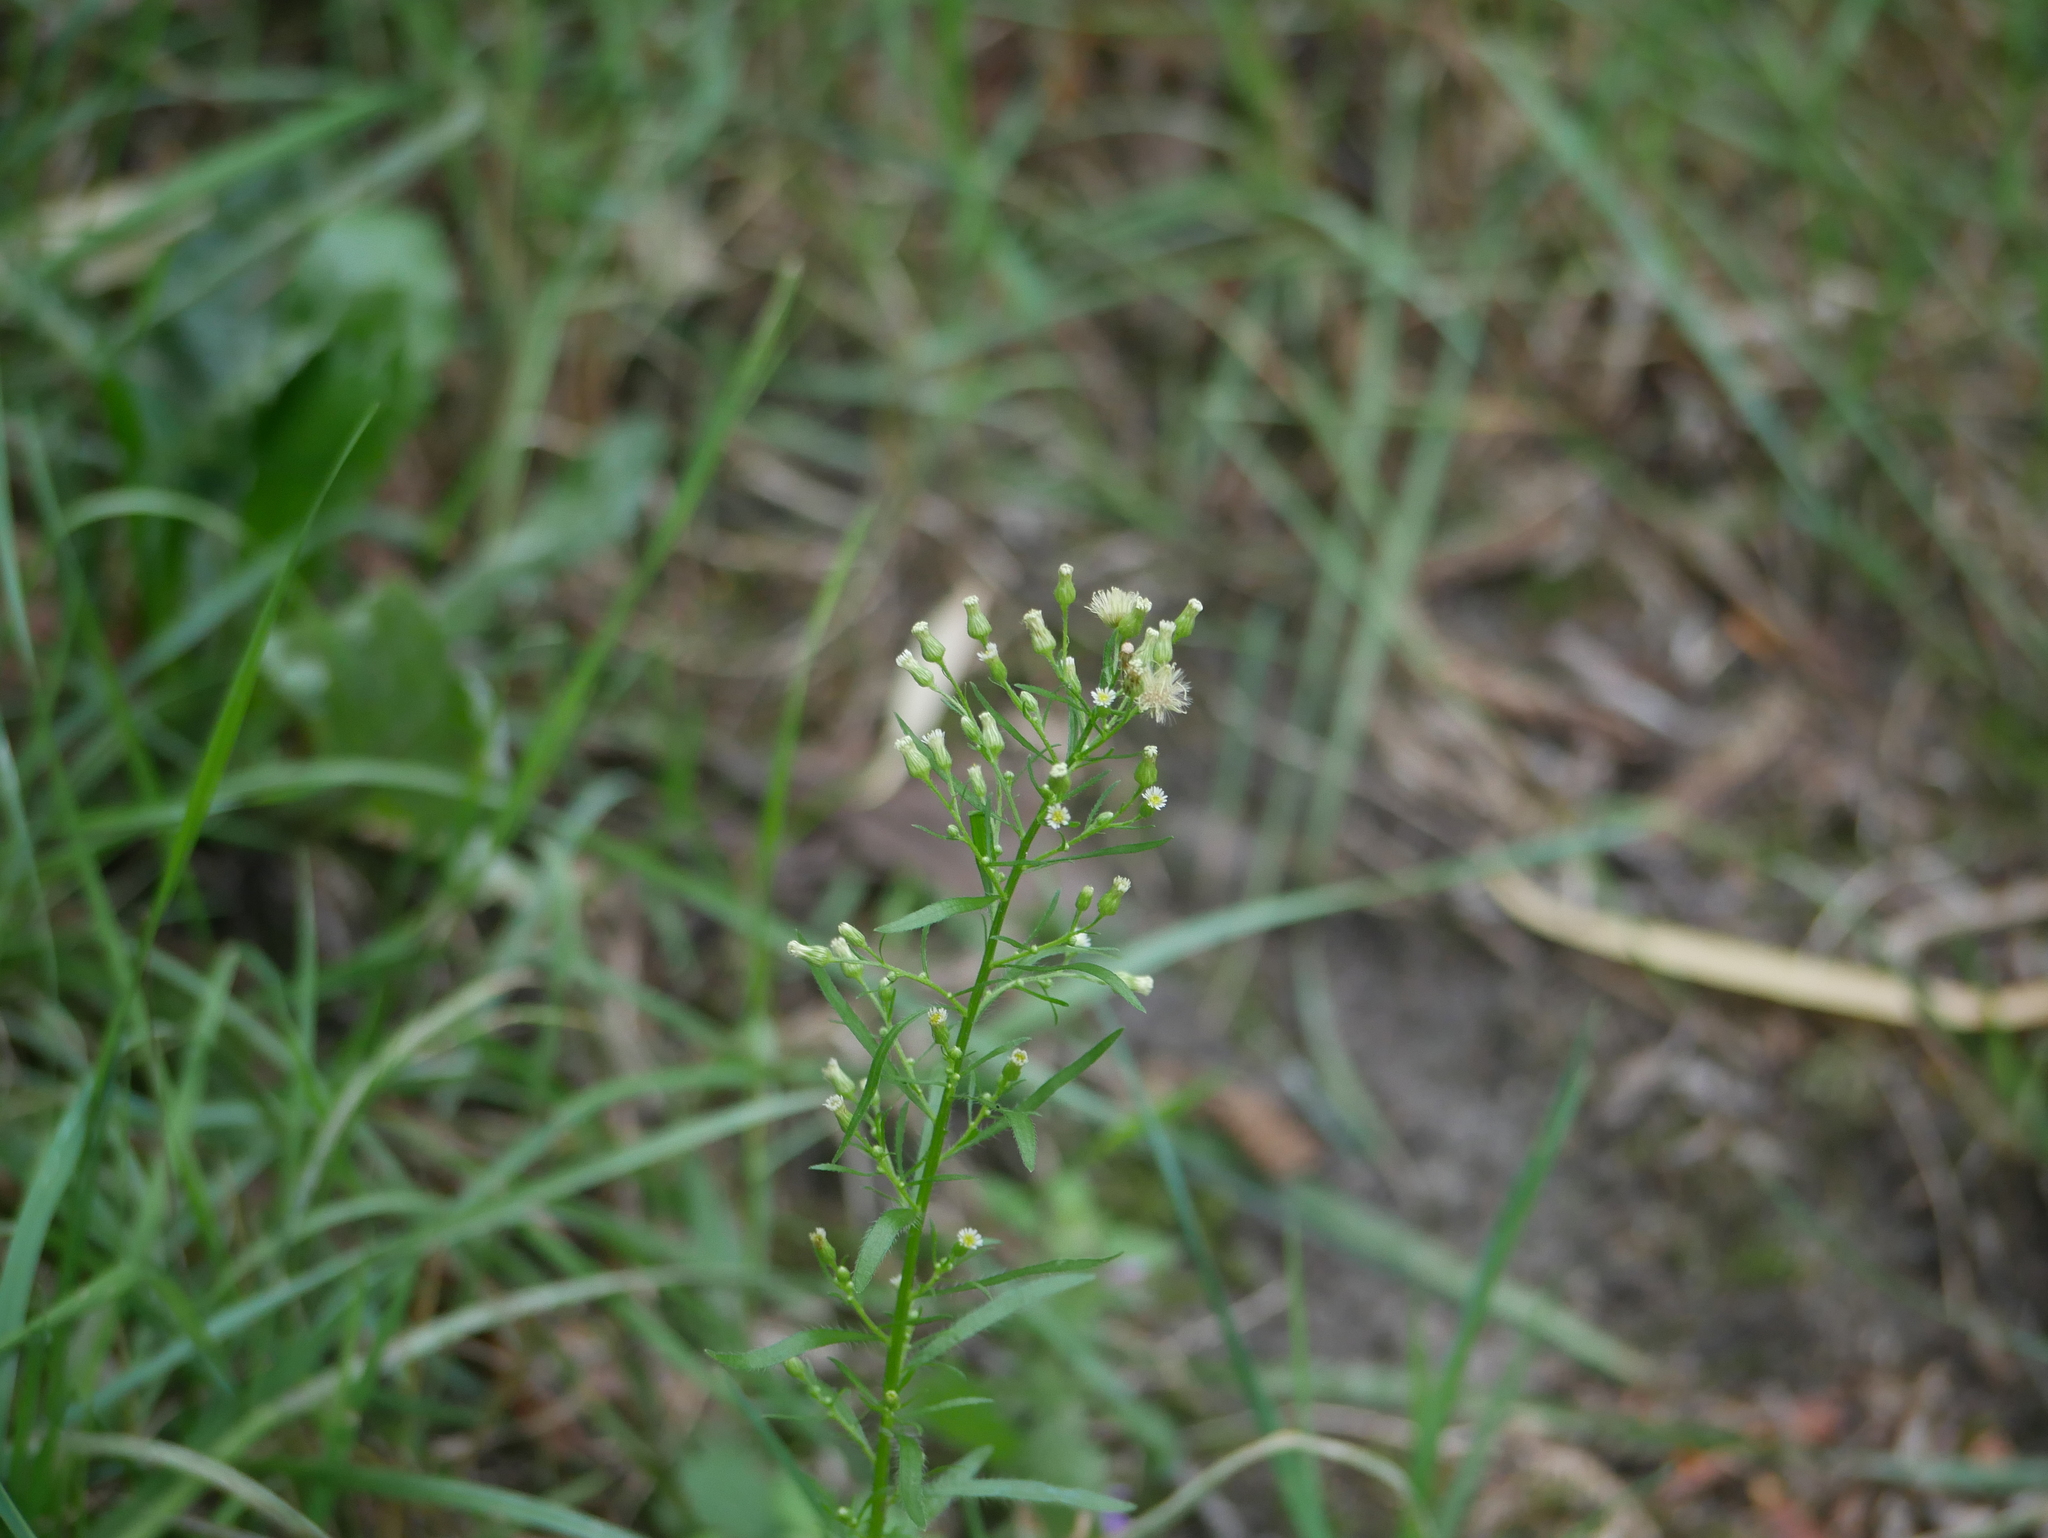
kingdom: Plantae
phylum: Tracheophyta
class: Magnoliopsida
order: Asterales
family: Asteraceae
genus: Erigeron
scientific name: Erigeron canadensis
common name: Canadian fleabane
